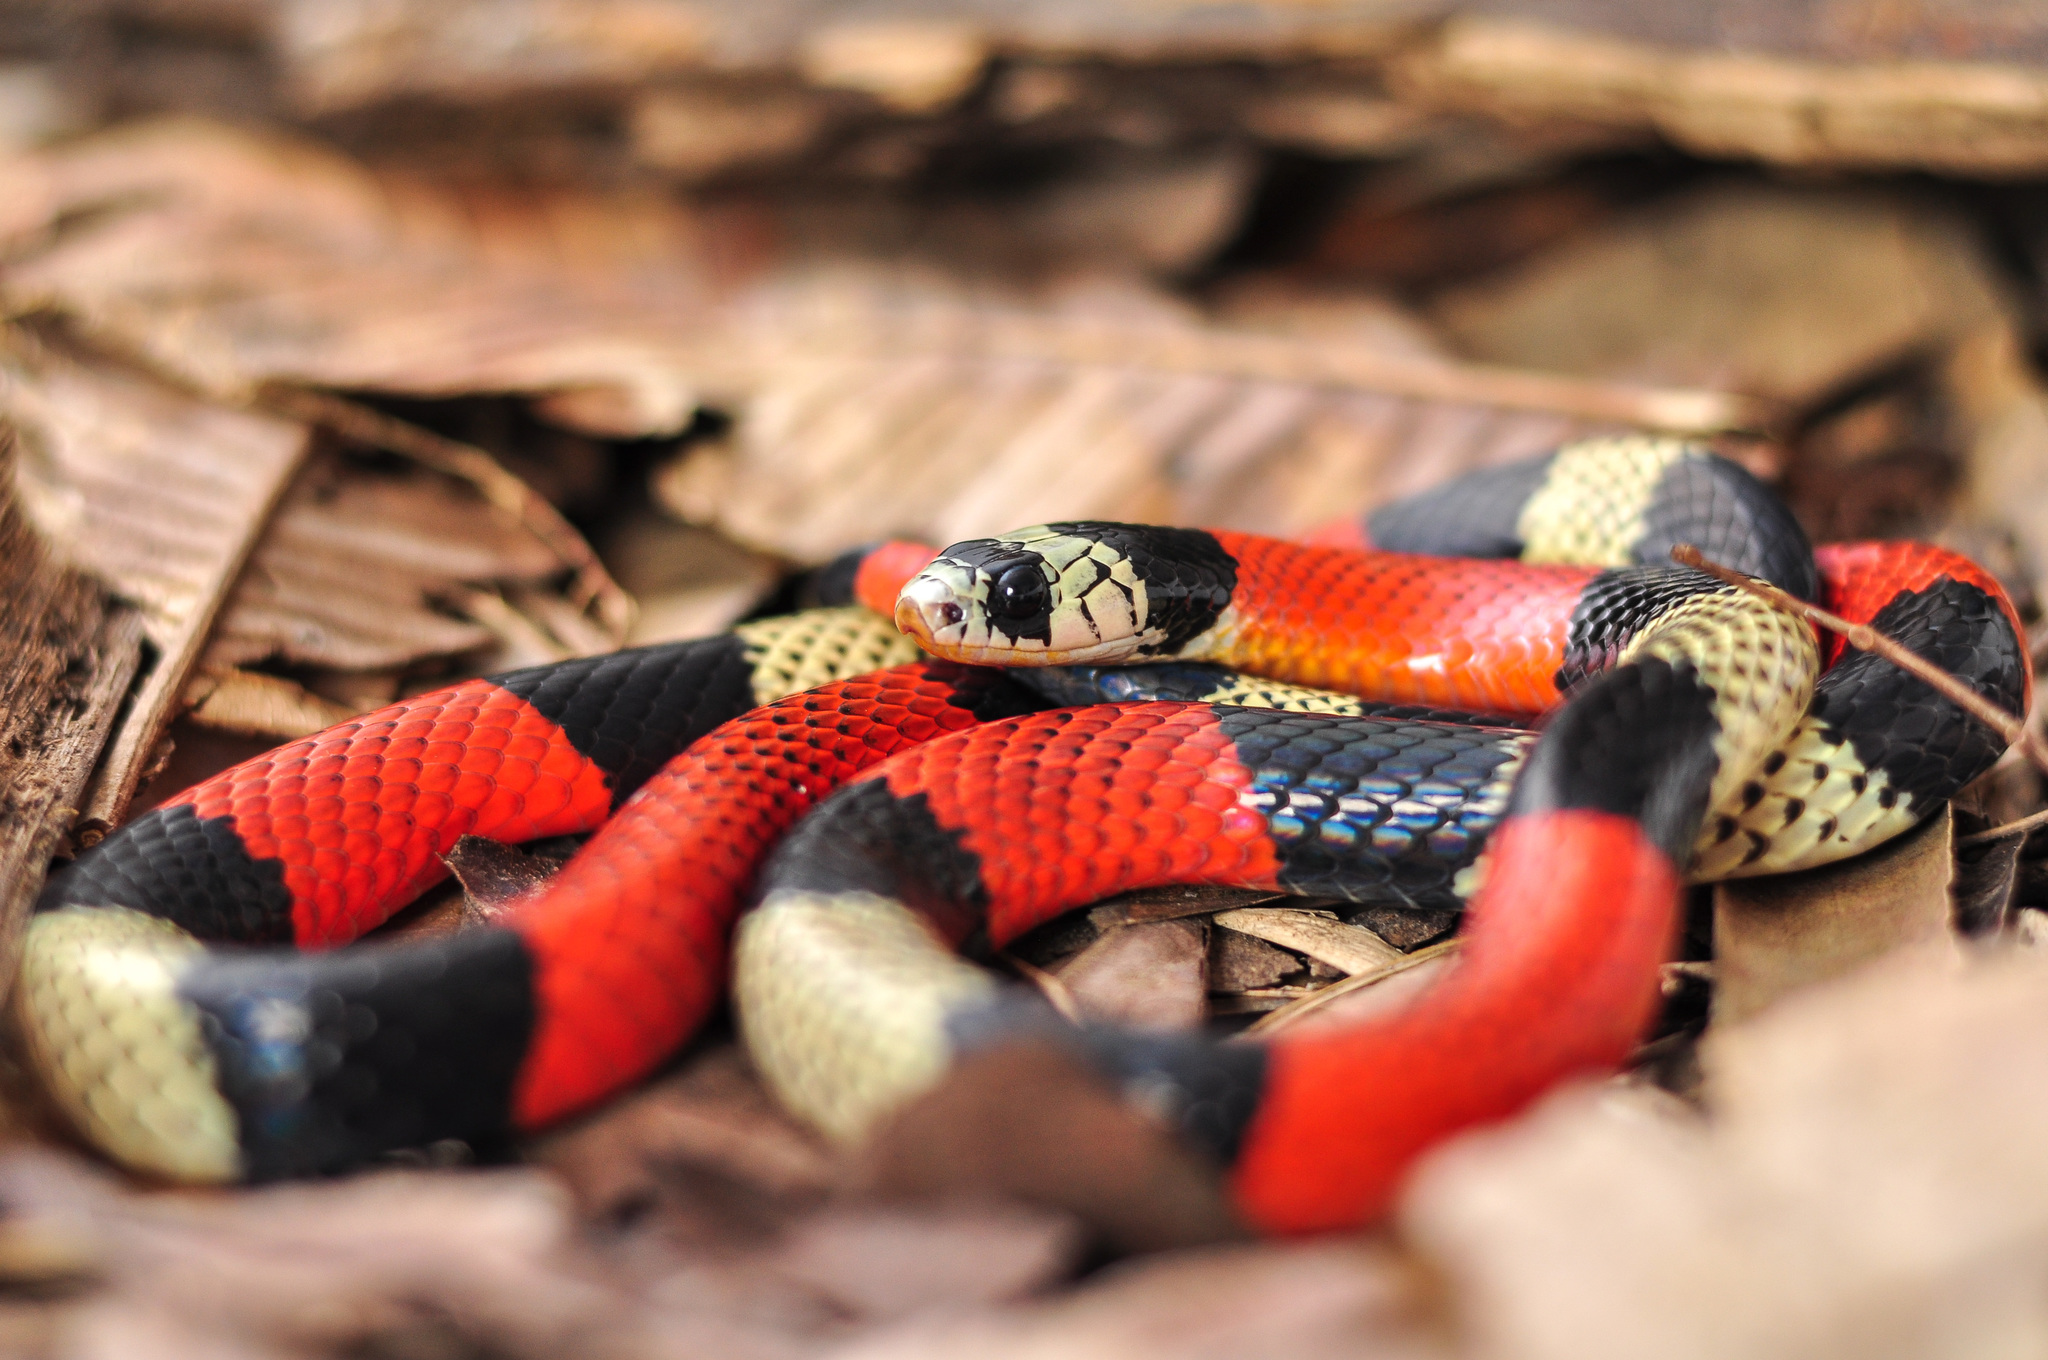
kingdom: Animalia
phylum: Chordata
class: Squamata
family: Colubridae
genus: Erythrolamprus
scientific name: Erythrolamprus aesculapii
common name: Aesculapian false coral snake
